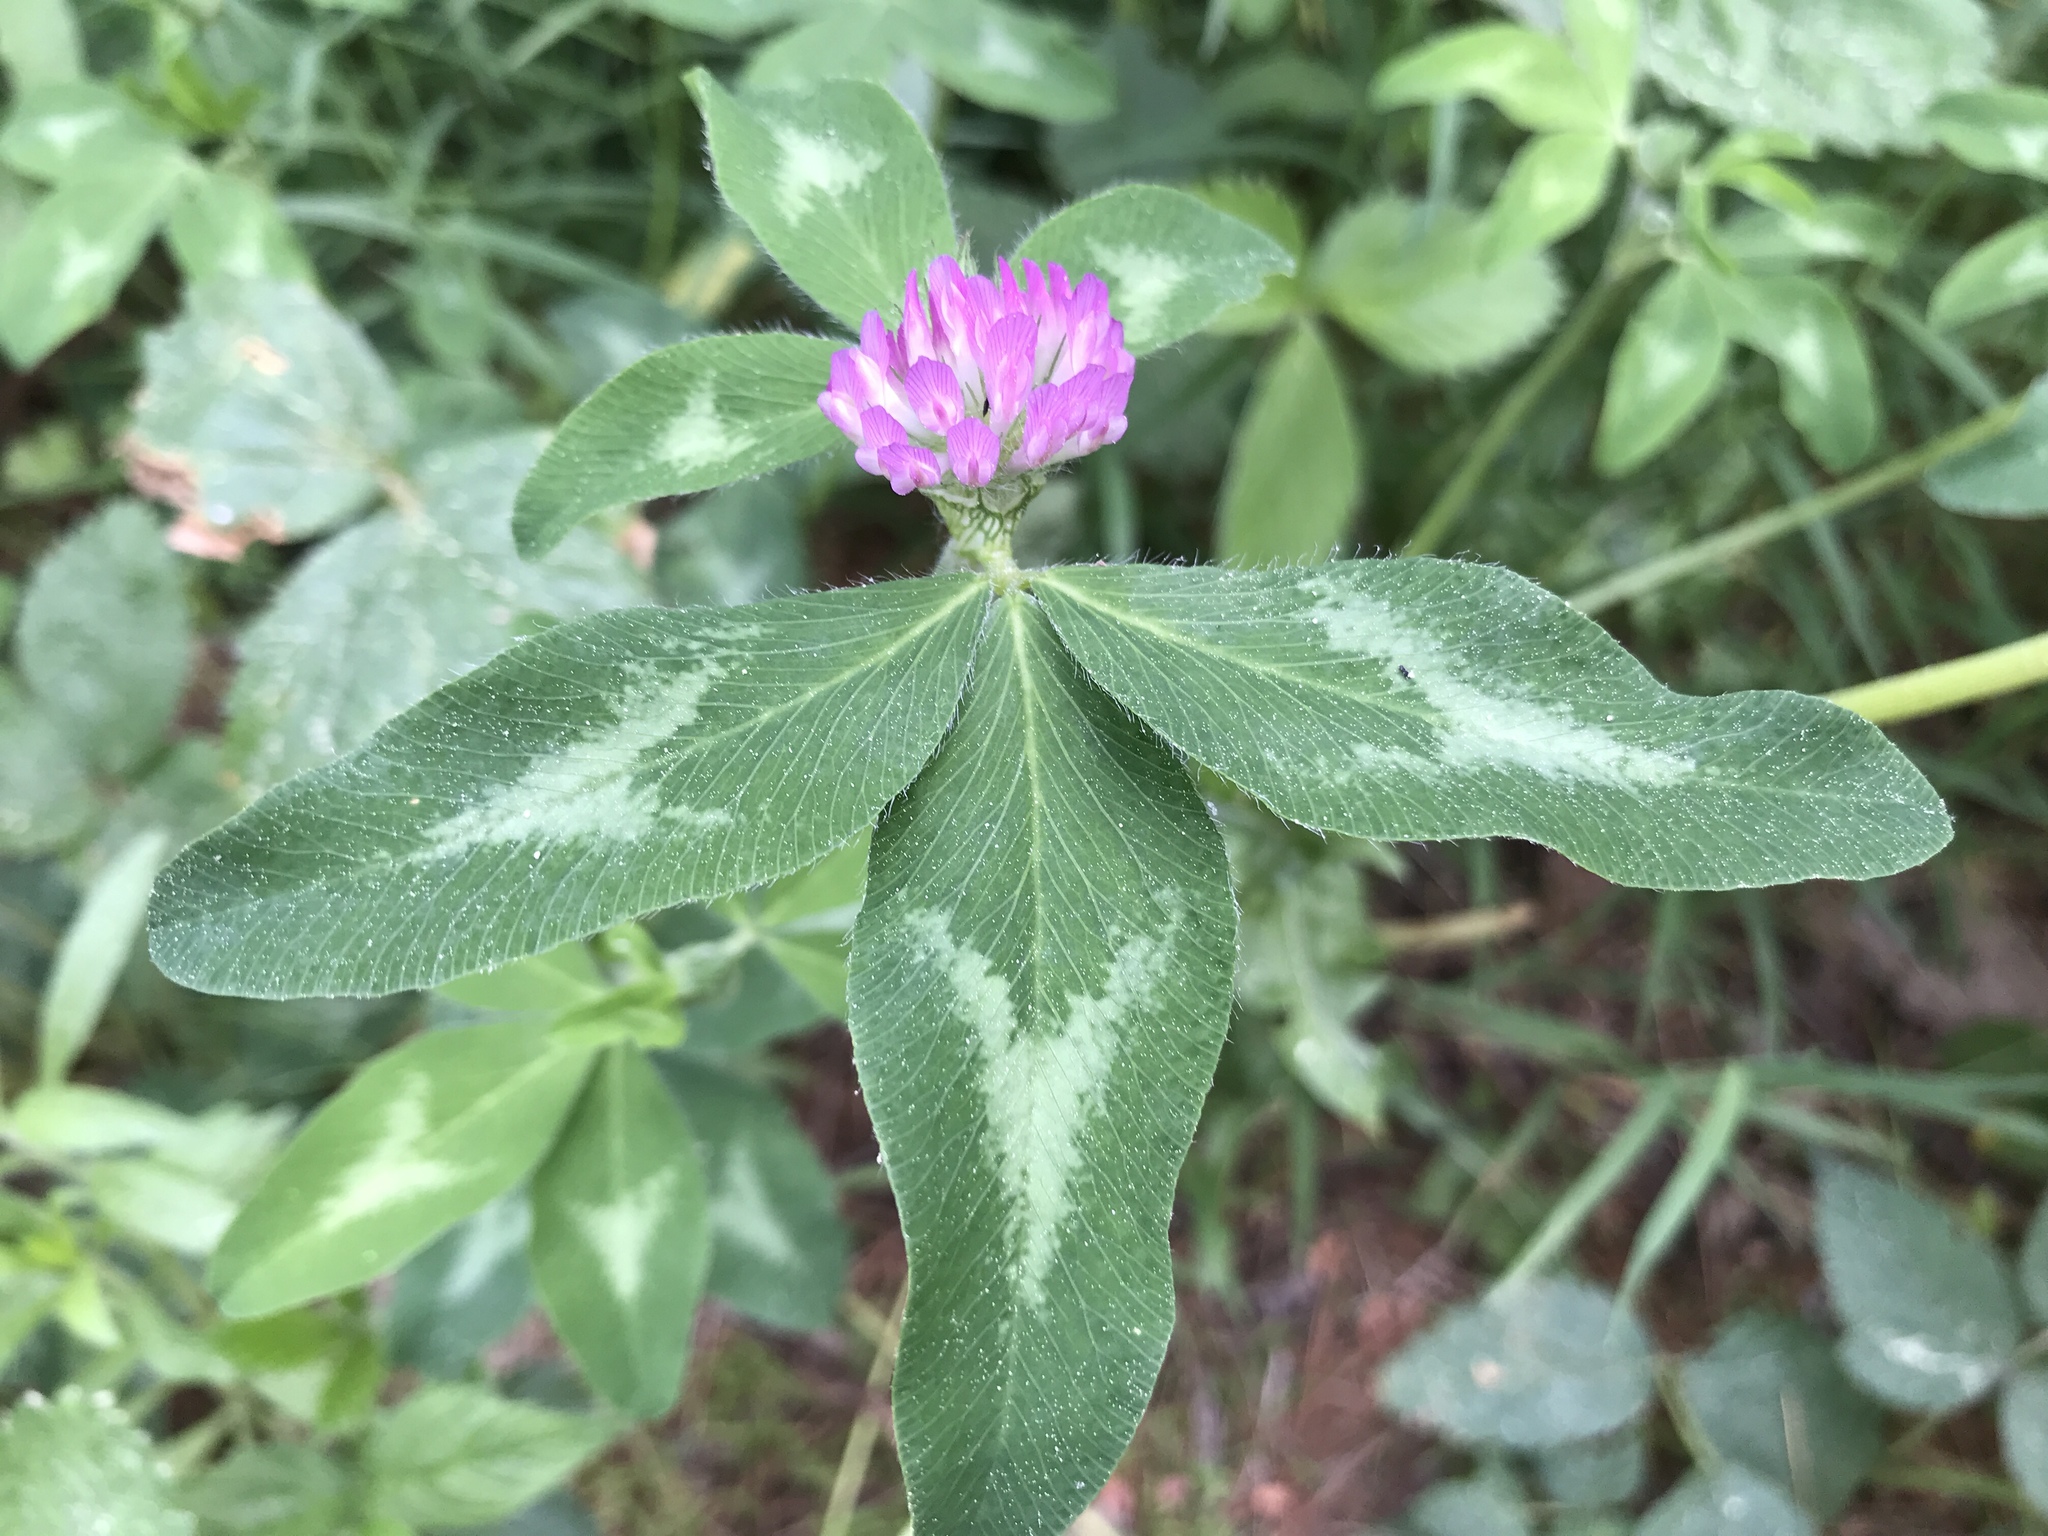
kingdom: Plantae
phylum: Tracheophyta
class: Magnoliopsida
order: Fabales
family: Fabaceae
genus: Trifolium
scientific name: Trifolium pratense
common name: Red clover
